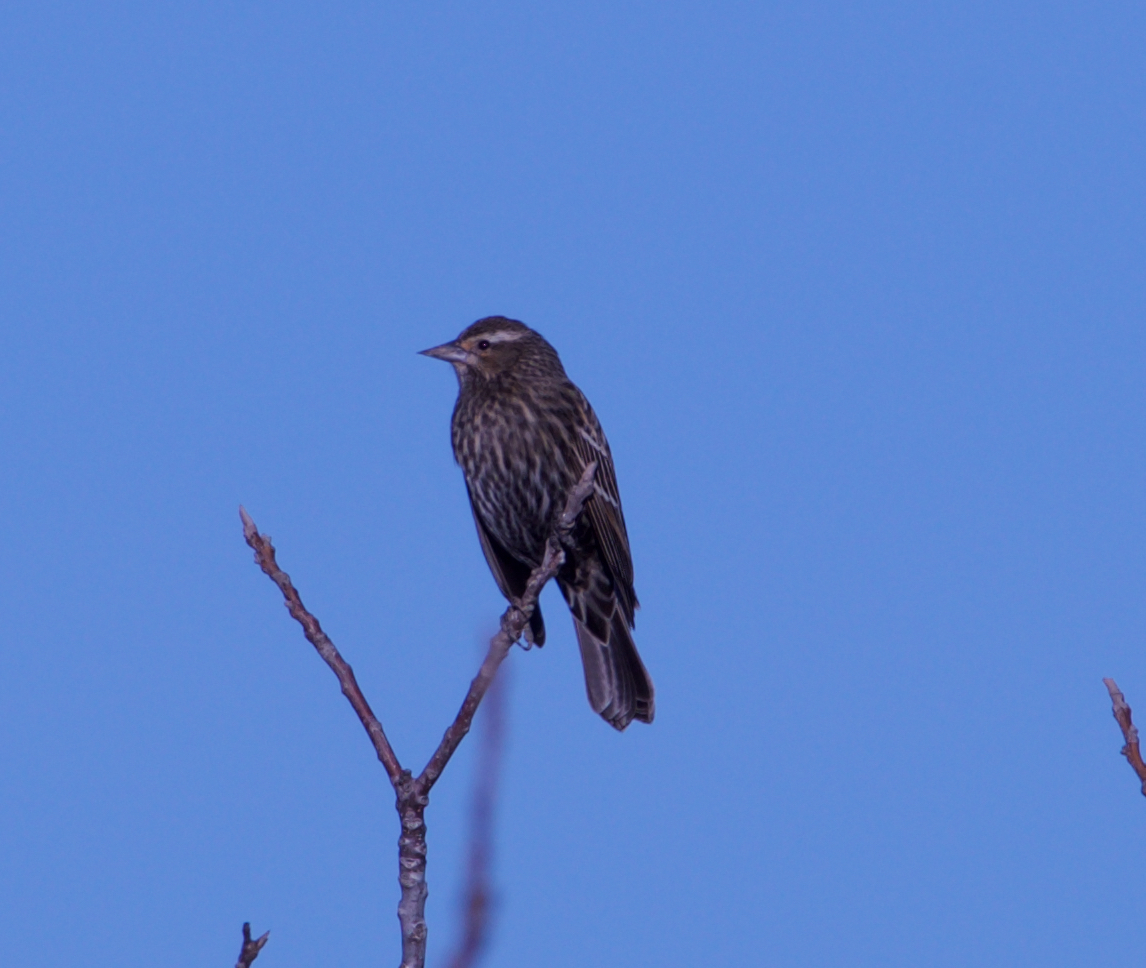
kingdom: Animalia
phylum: Chordata
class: Aves
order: Passeriformes
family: Icteridae
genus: Agelaius
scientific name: Agelaius phoeniceus
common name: Red-winged blackbird
